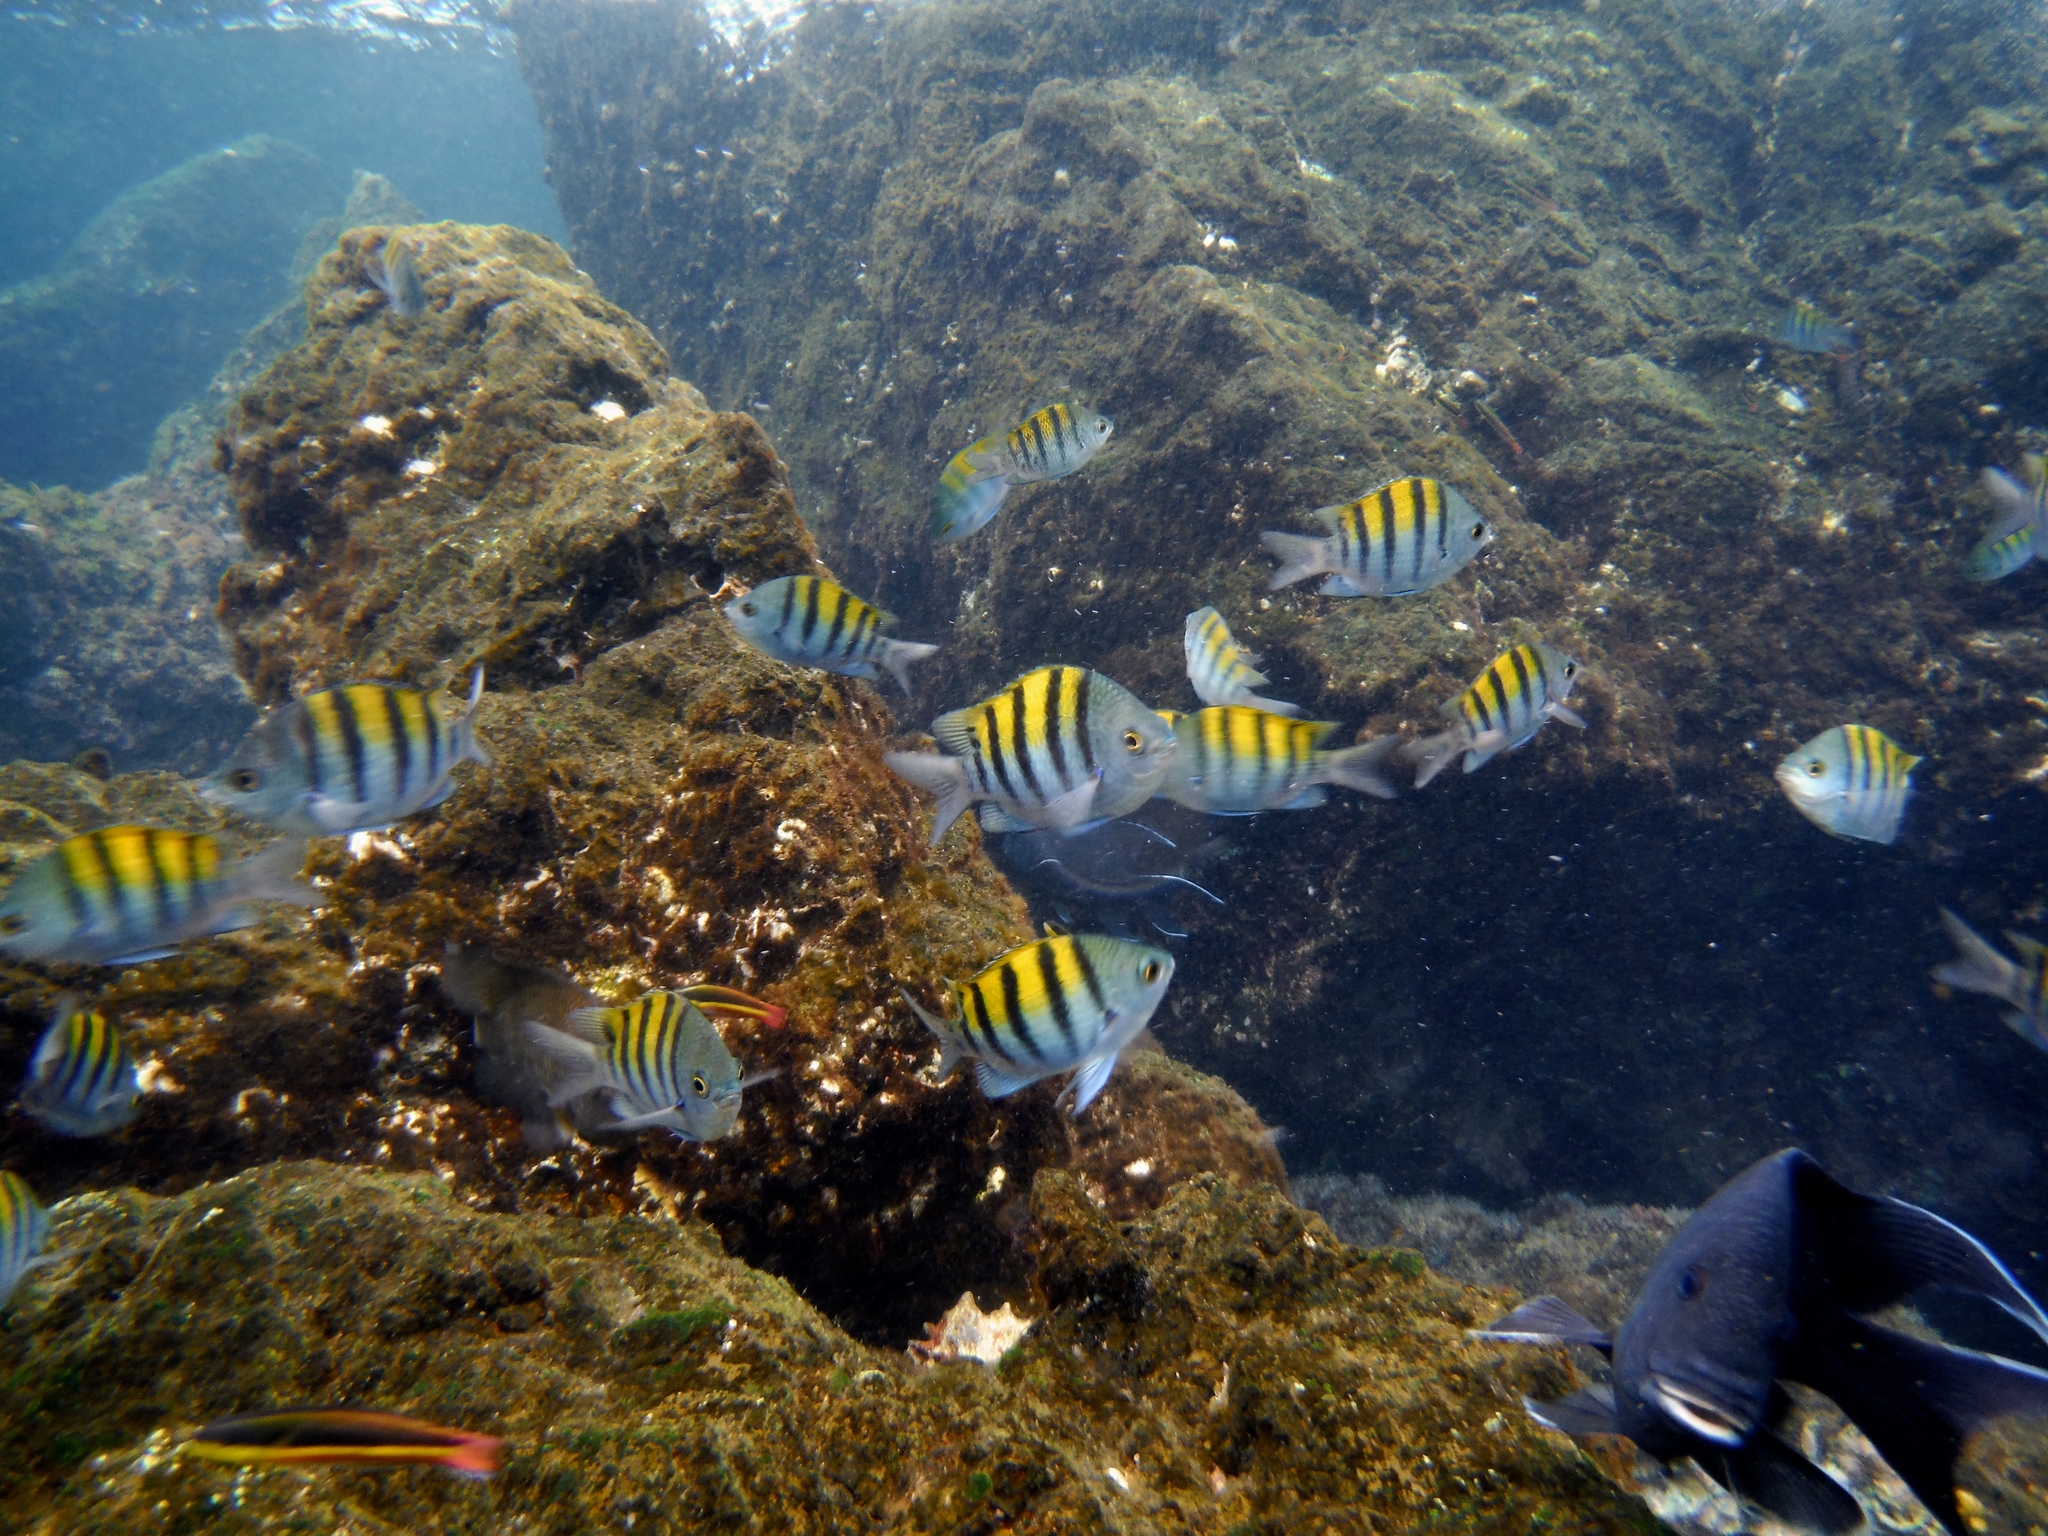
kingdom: Animalia
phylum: Chordata
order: Perciformes
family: Pomacentridae
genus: Abudefduf
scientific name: Abudefduf troschelii
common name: Panamic sergeant major
